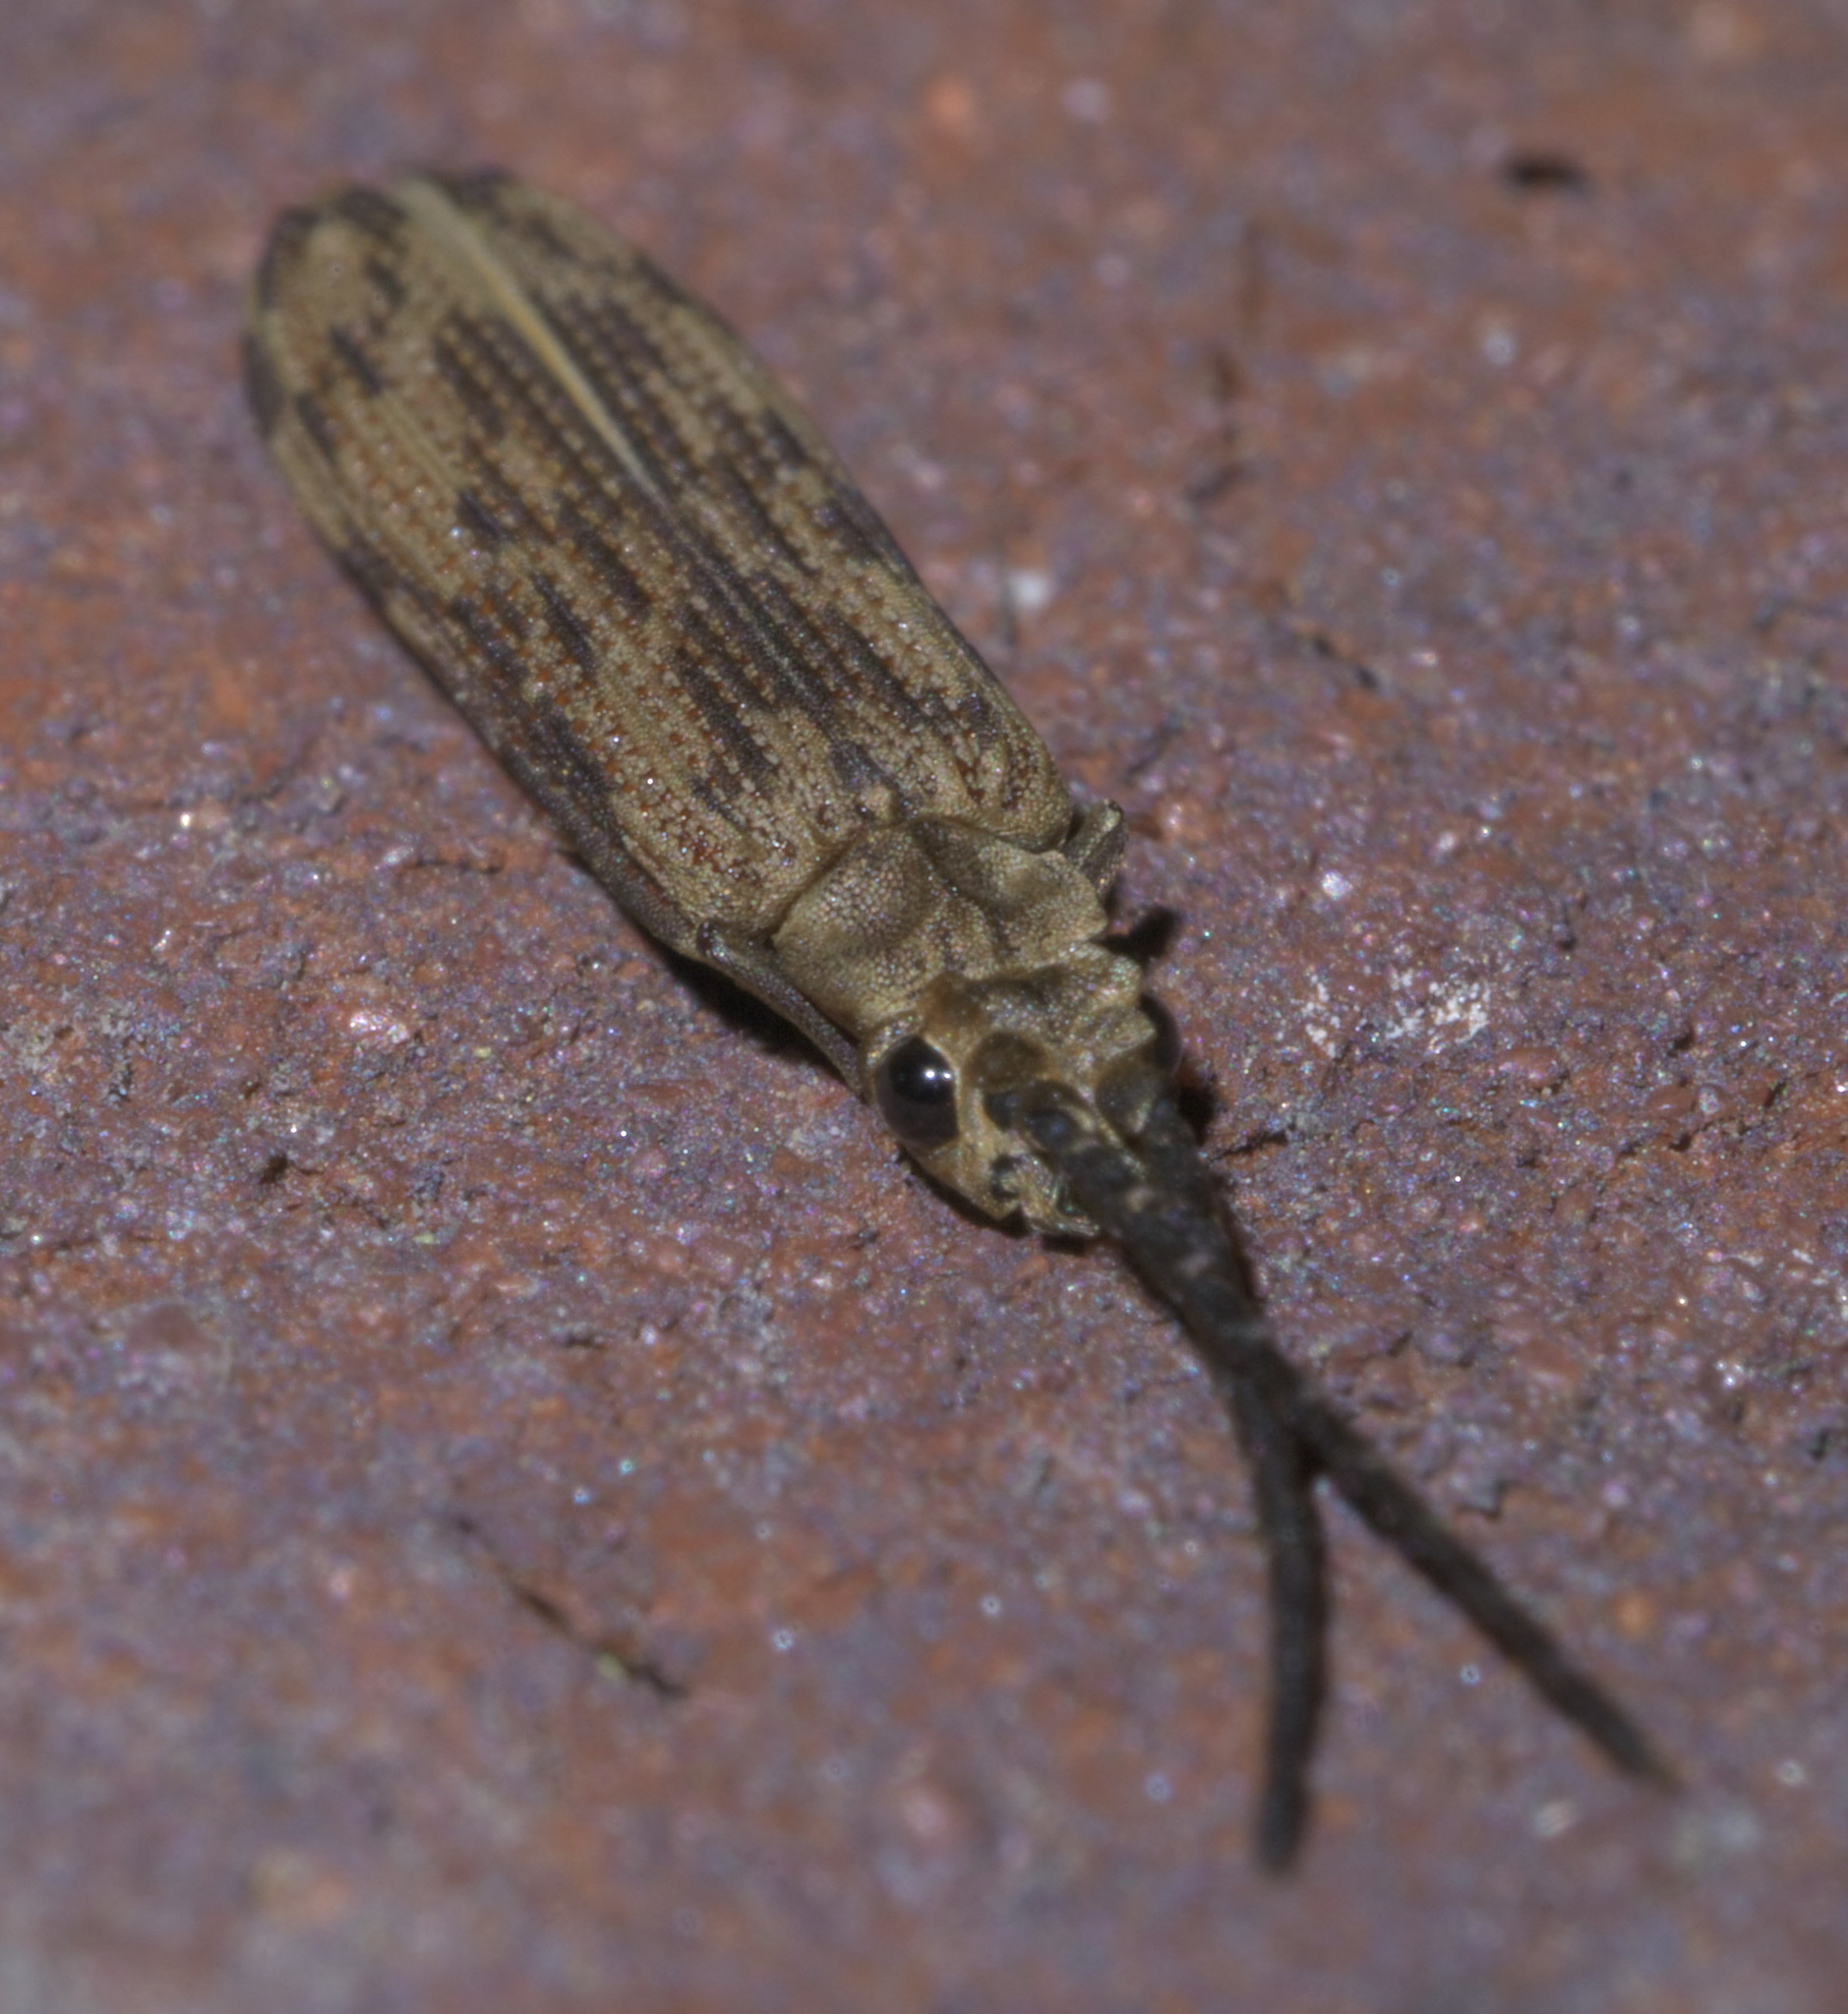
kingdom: Animalia
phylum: Arthropoda
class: Insecta
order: Coleoptera
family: Cupedidae
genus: Tenomerga
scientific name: Tenomerga cinerea
